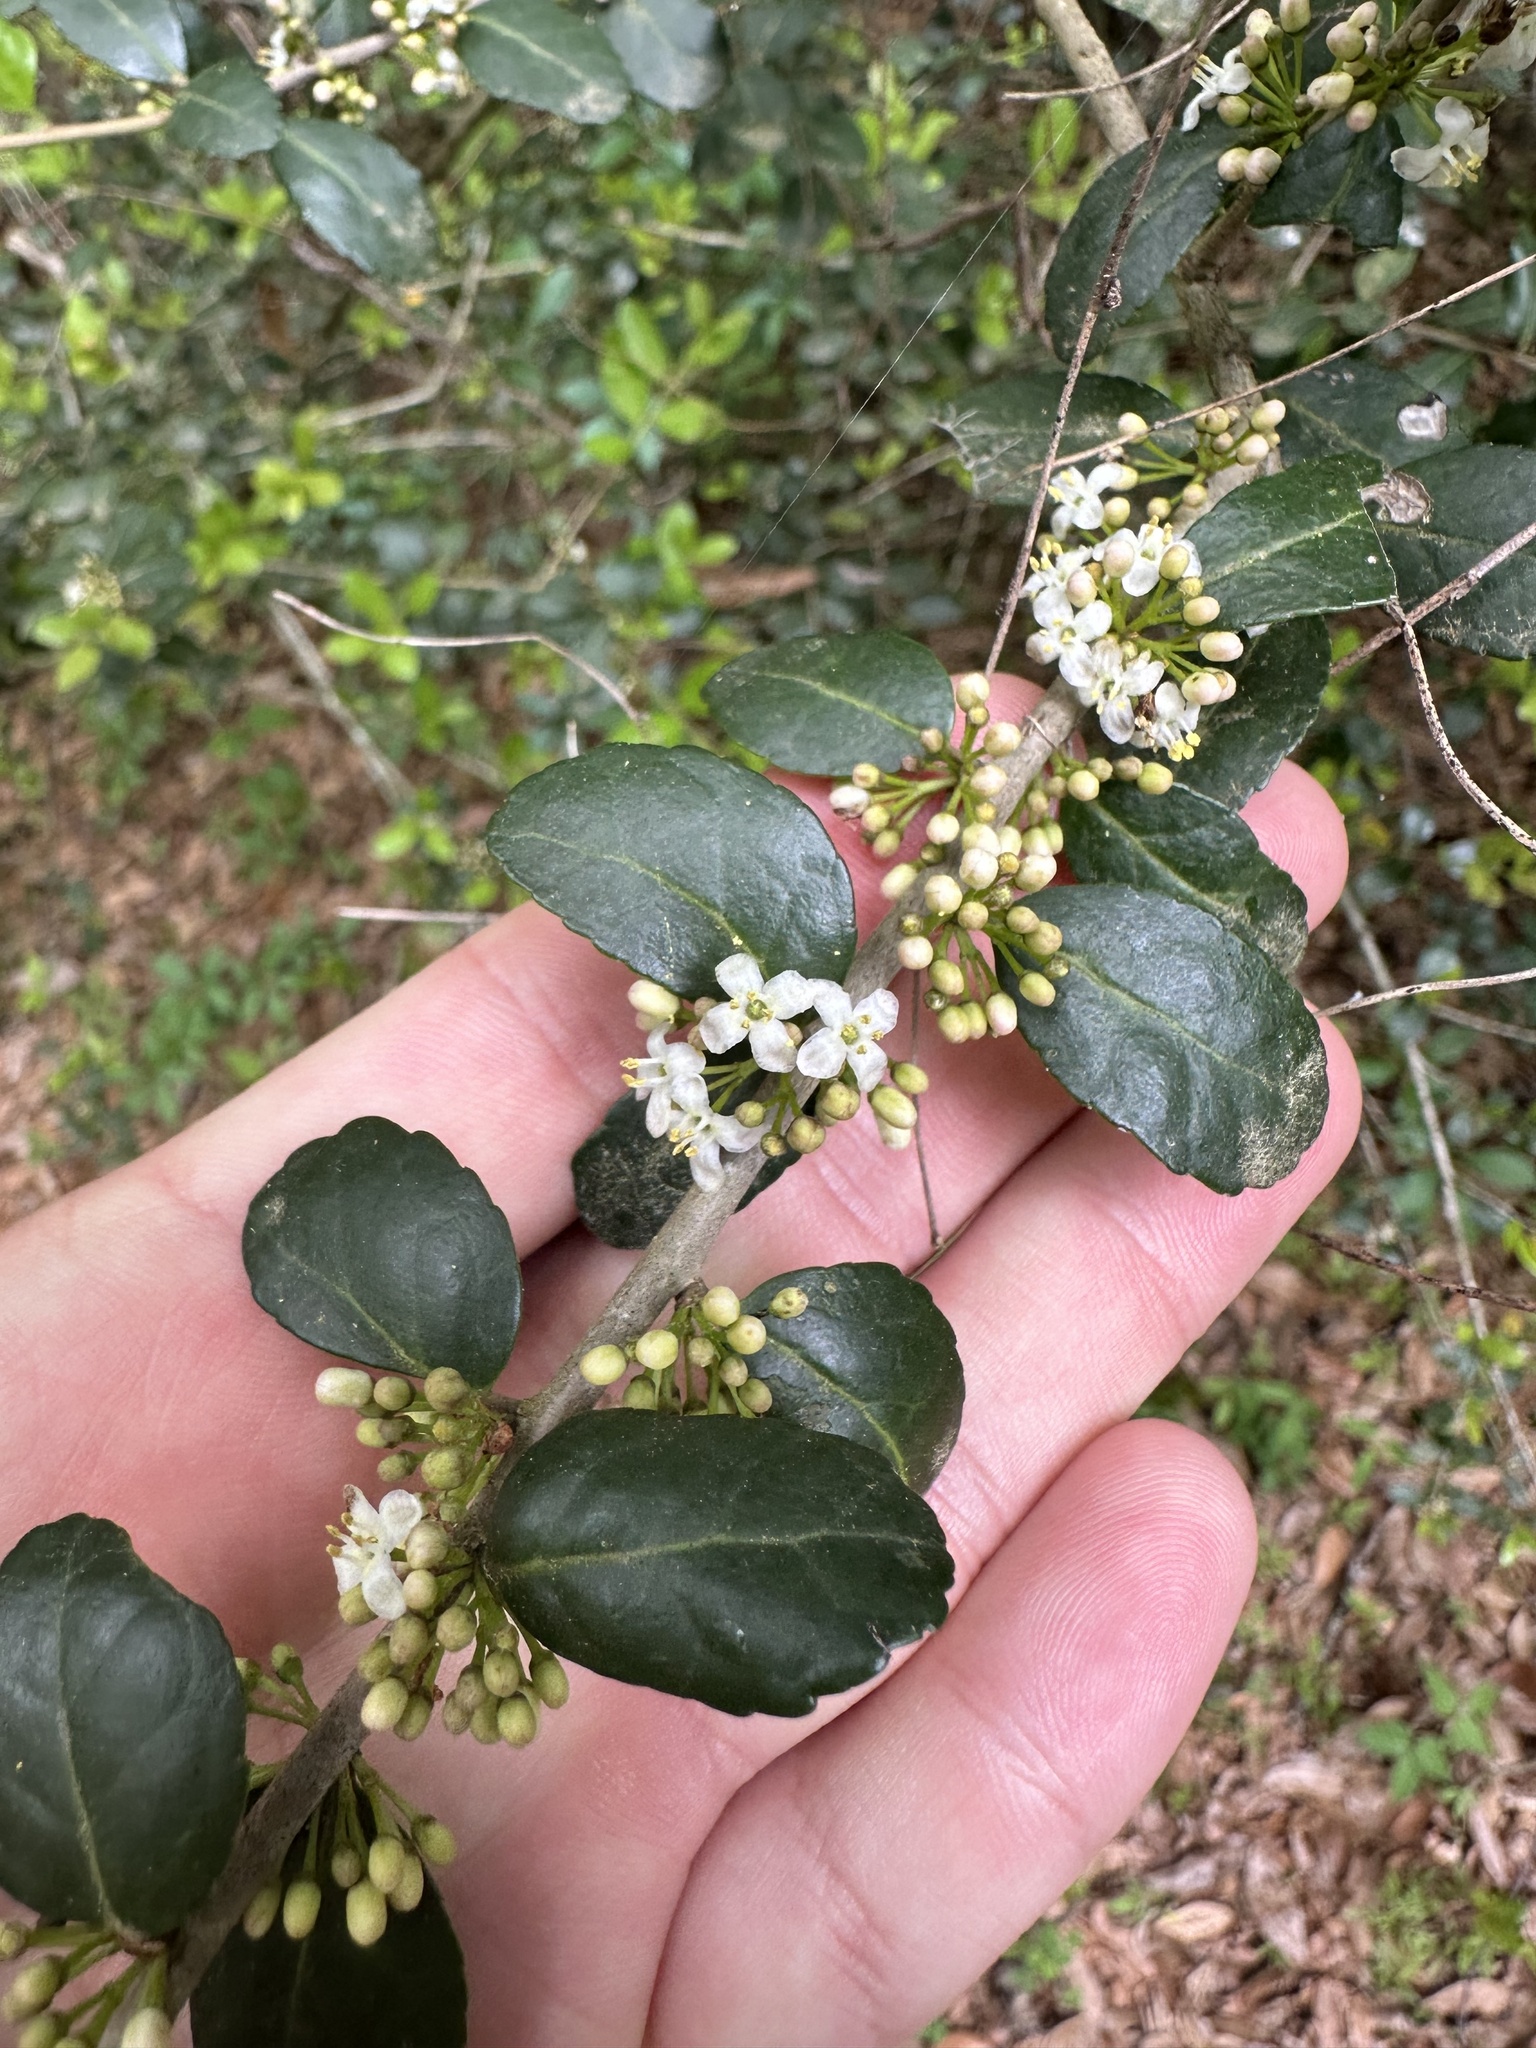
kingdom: Plantae
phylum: Tracheophyta
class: Magnoliopsida
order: Aquifoliales
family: Aquifoliaceae
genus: Ilex
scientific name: Ilex vomitoria
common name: Yaupon holly
